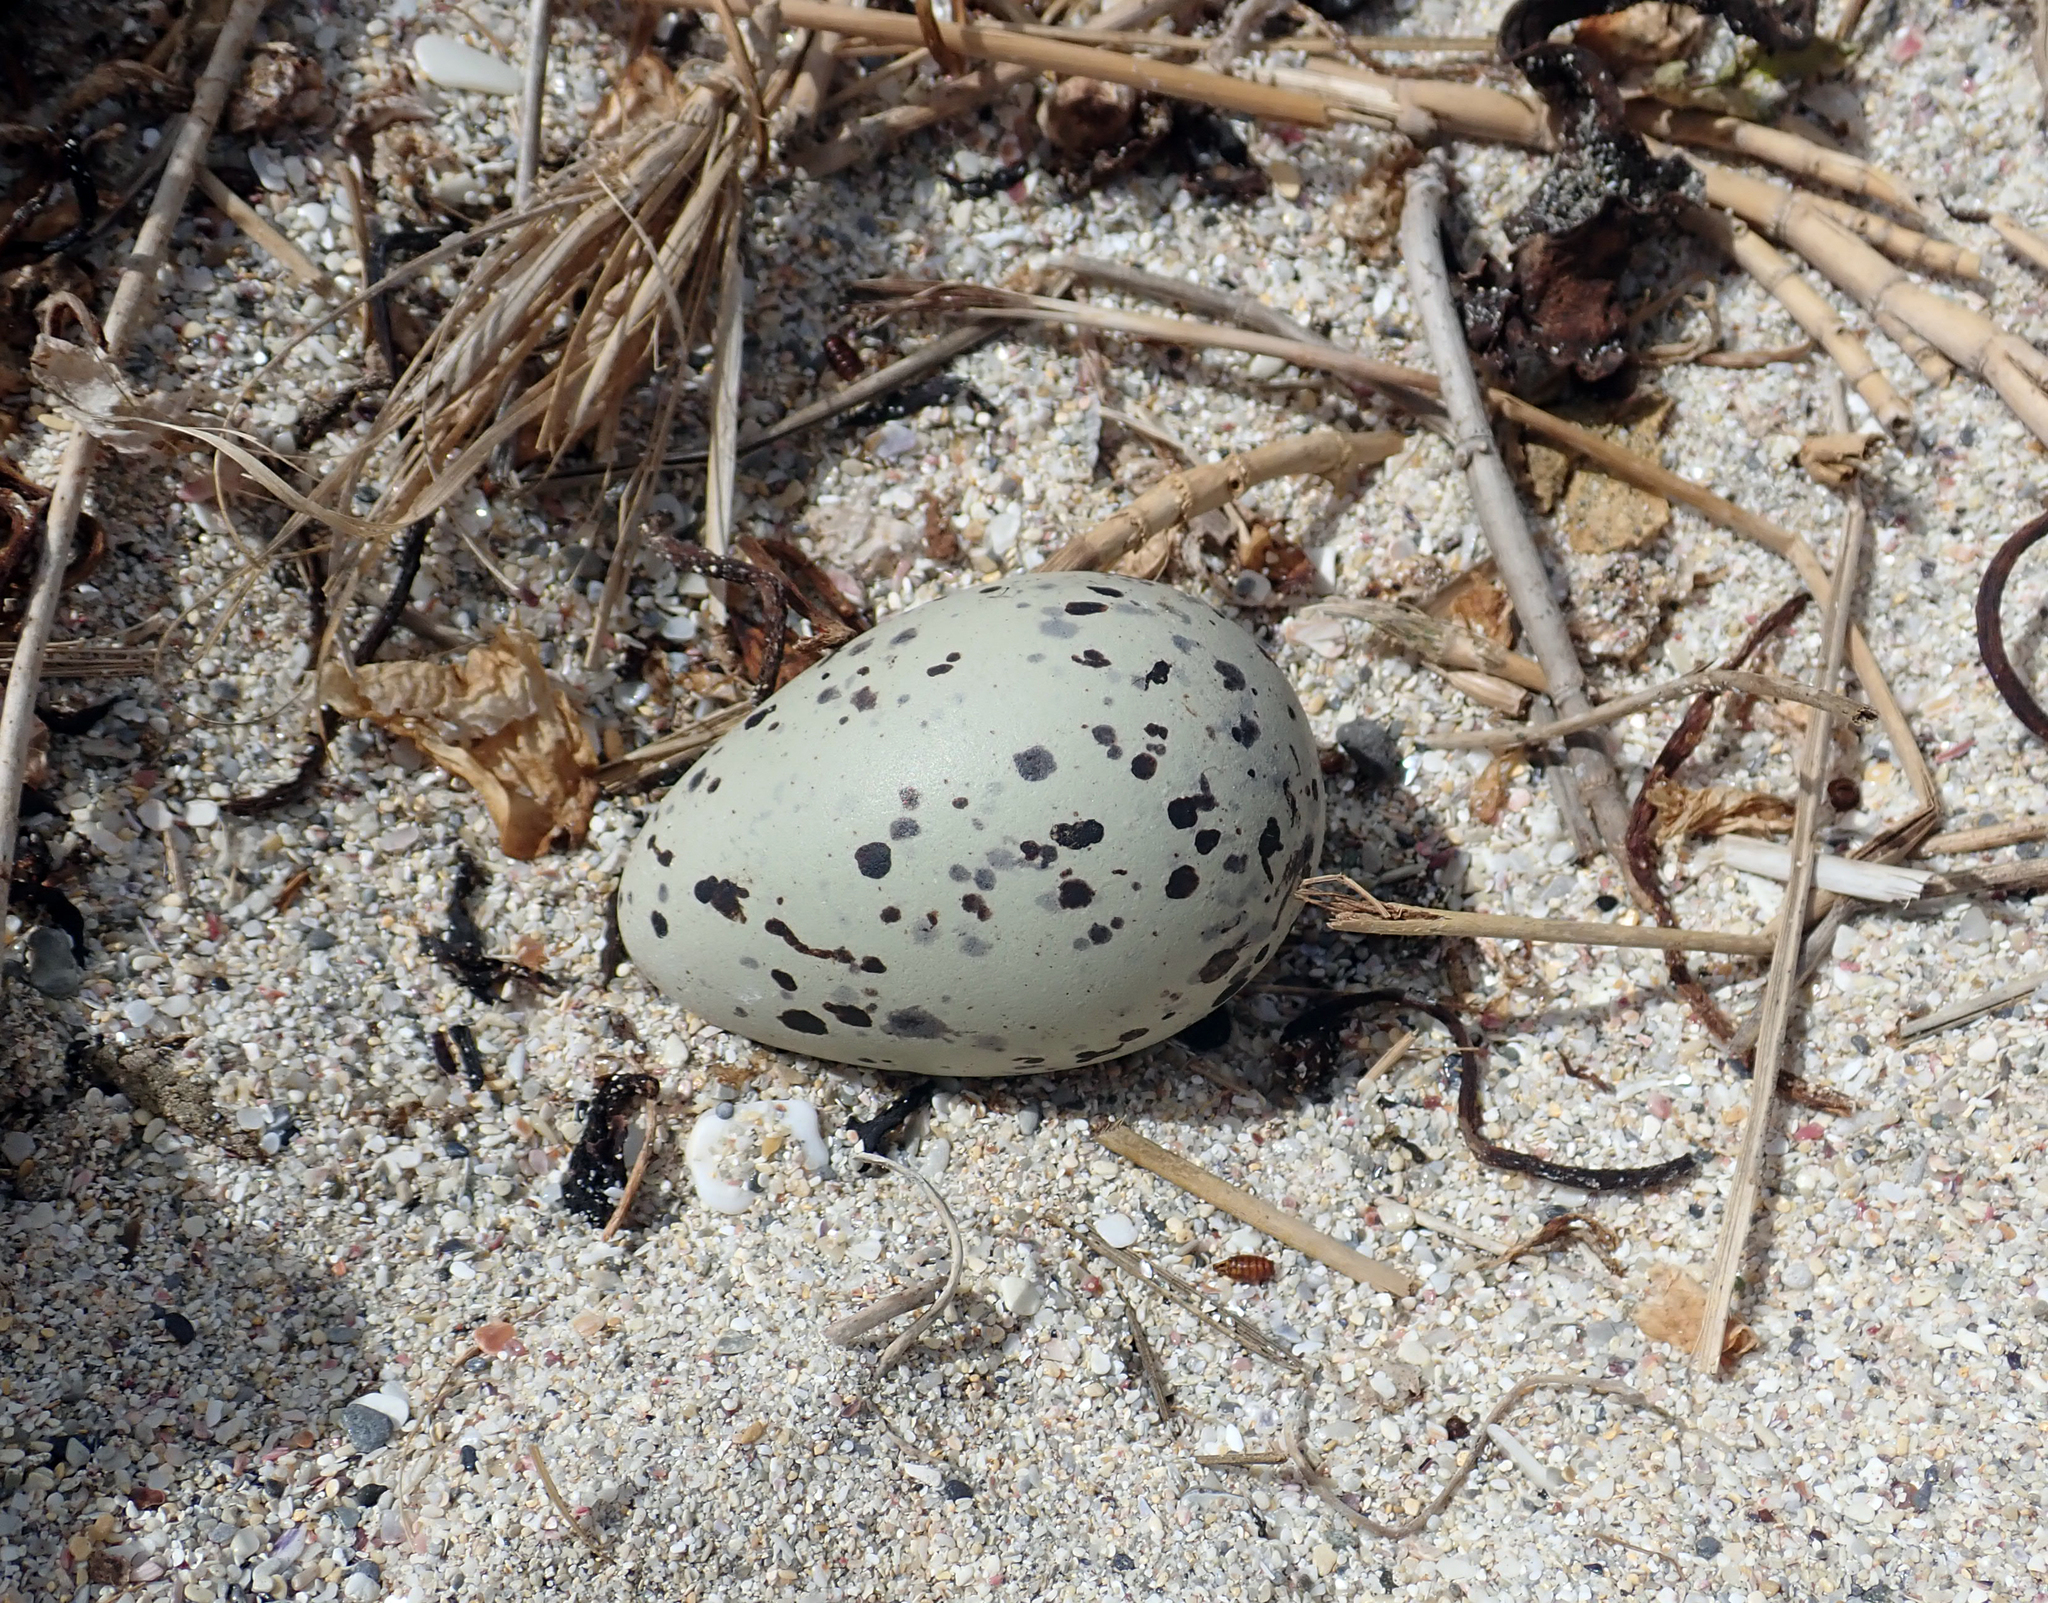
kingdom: Animalia
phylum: Chordata
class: Aves
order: Charadriiformes
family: Haematopodidae
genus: Haematopus
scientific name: Haematopus chathamensis
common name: Chatham oystercatcher
